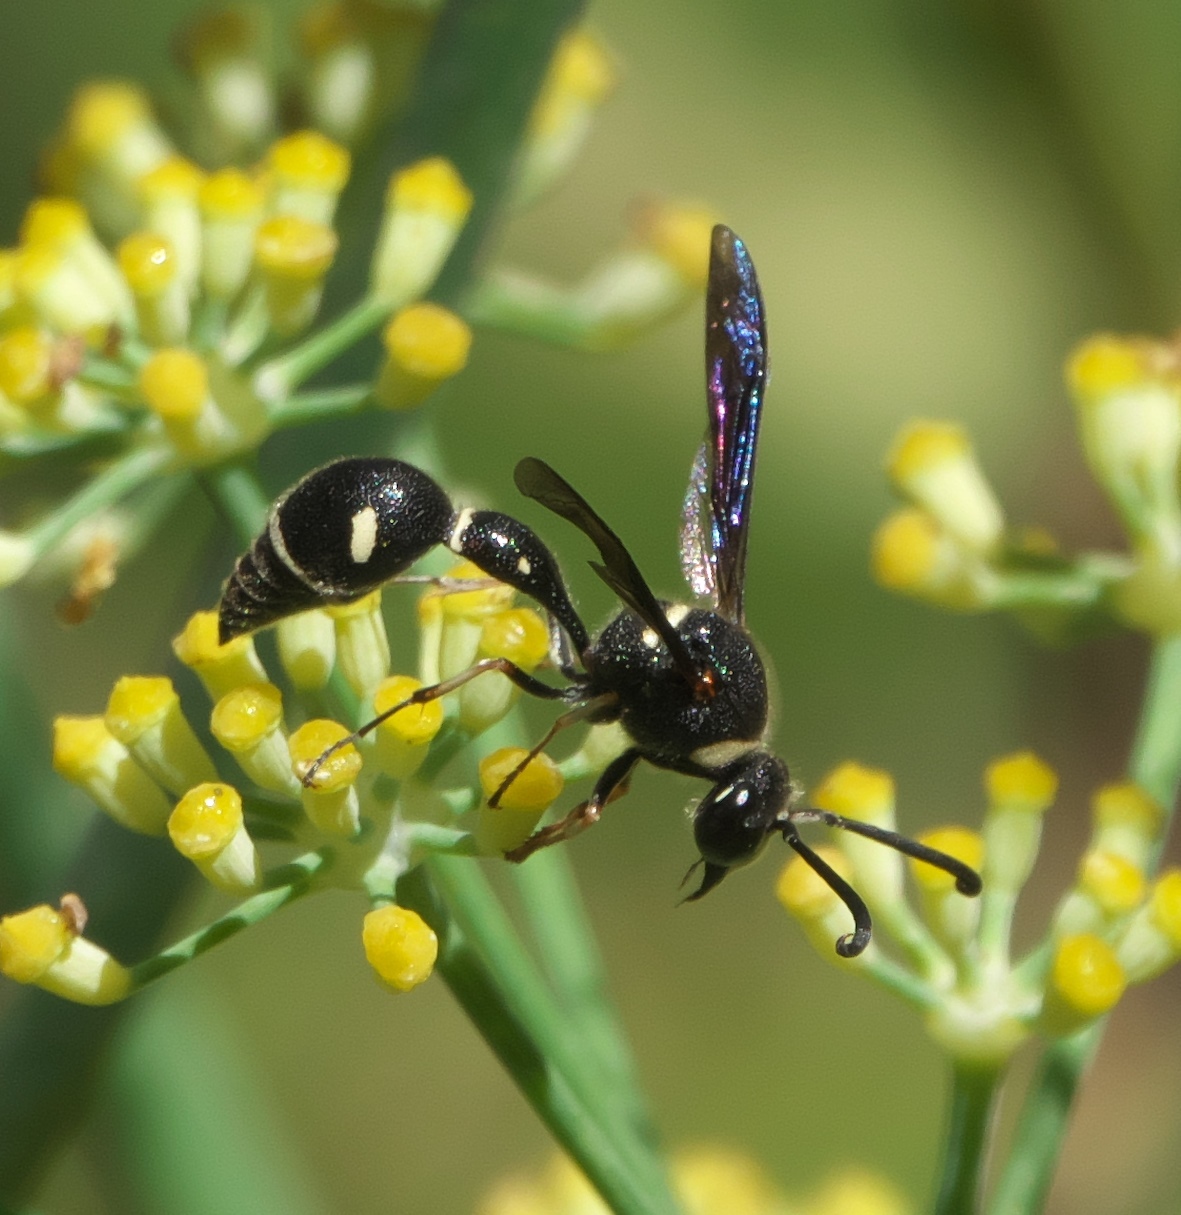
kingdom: Animalia
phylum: Arthropoda
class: Insecta
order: Hymenoptera
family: Vespidae
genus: Eumenes
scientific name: Eumenes fraternus
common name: Fraternal potter wasp
